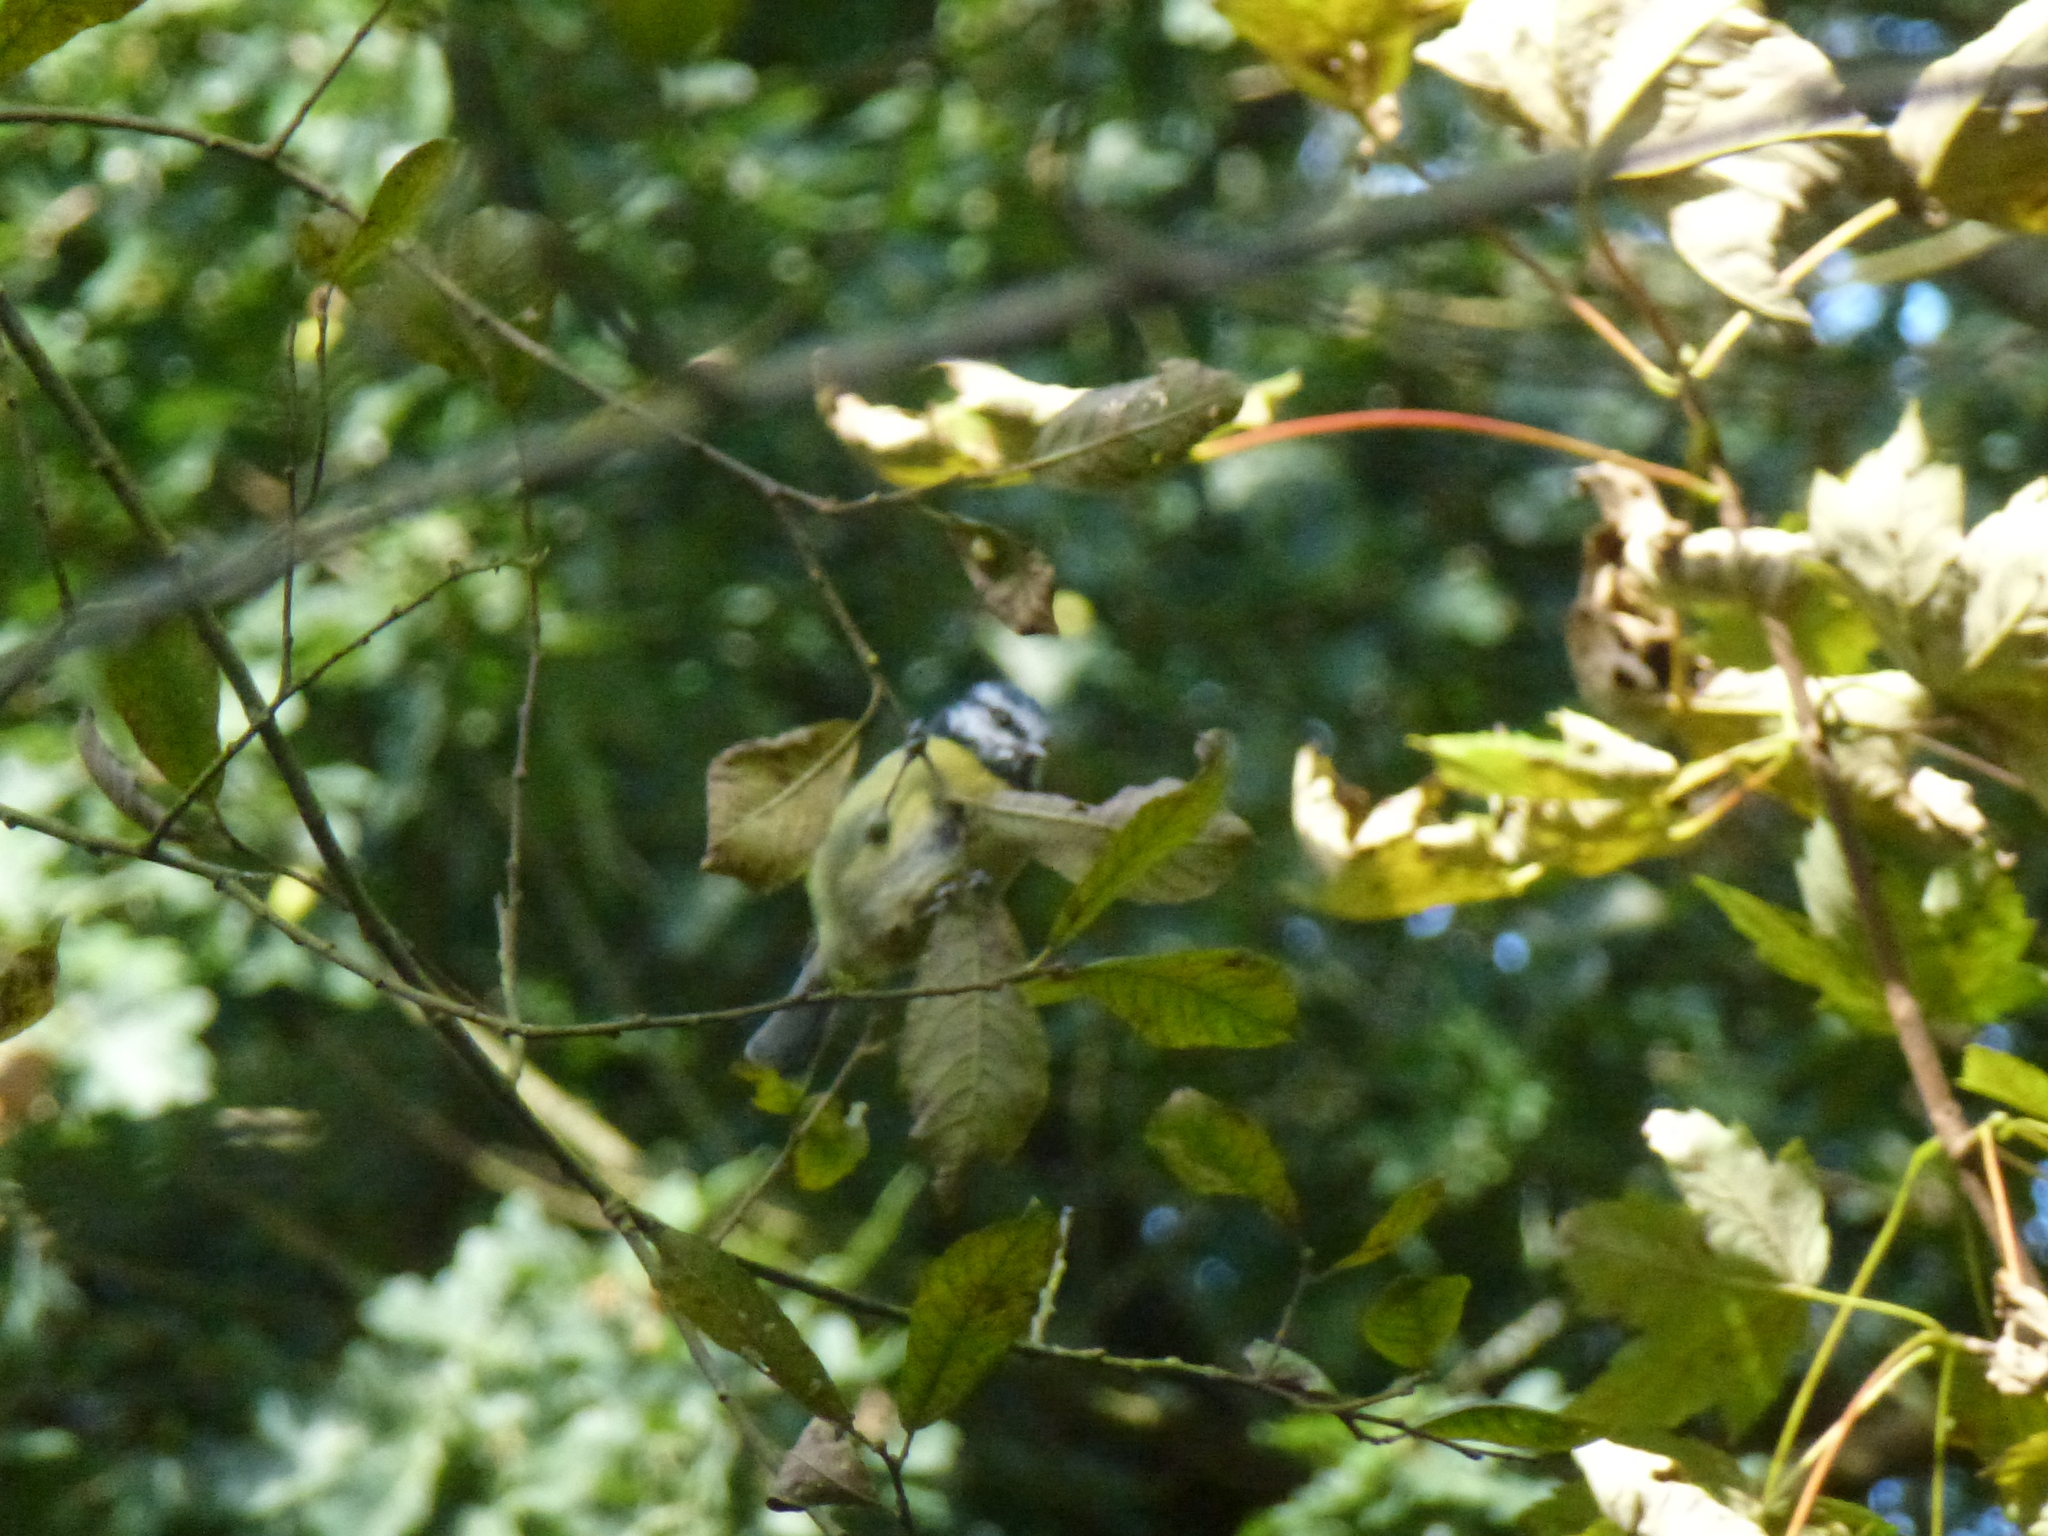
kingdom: Animalia
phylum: Chordata
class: Aves
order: Passeriformes
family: Paridae
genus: Cyanistes
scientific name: Cyanistes caeruleus
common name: Eurasian blue tit
